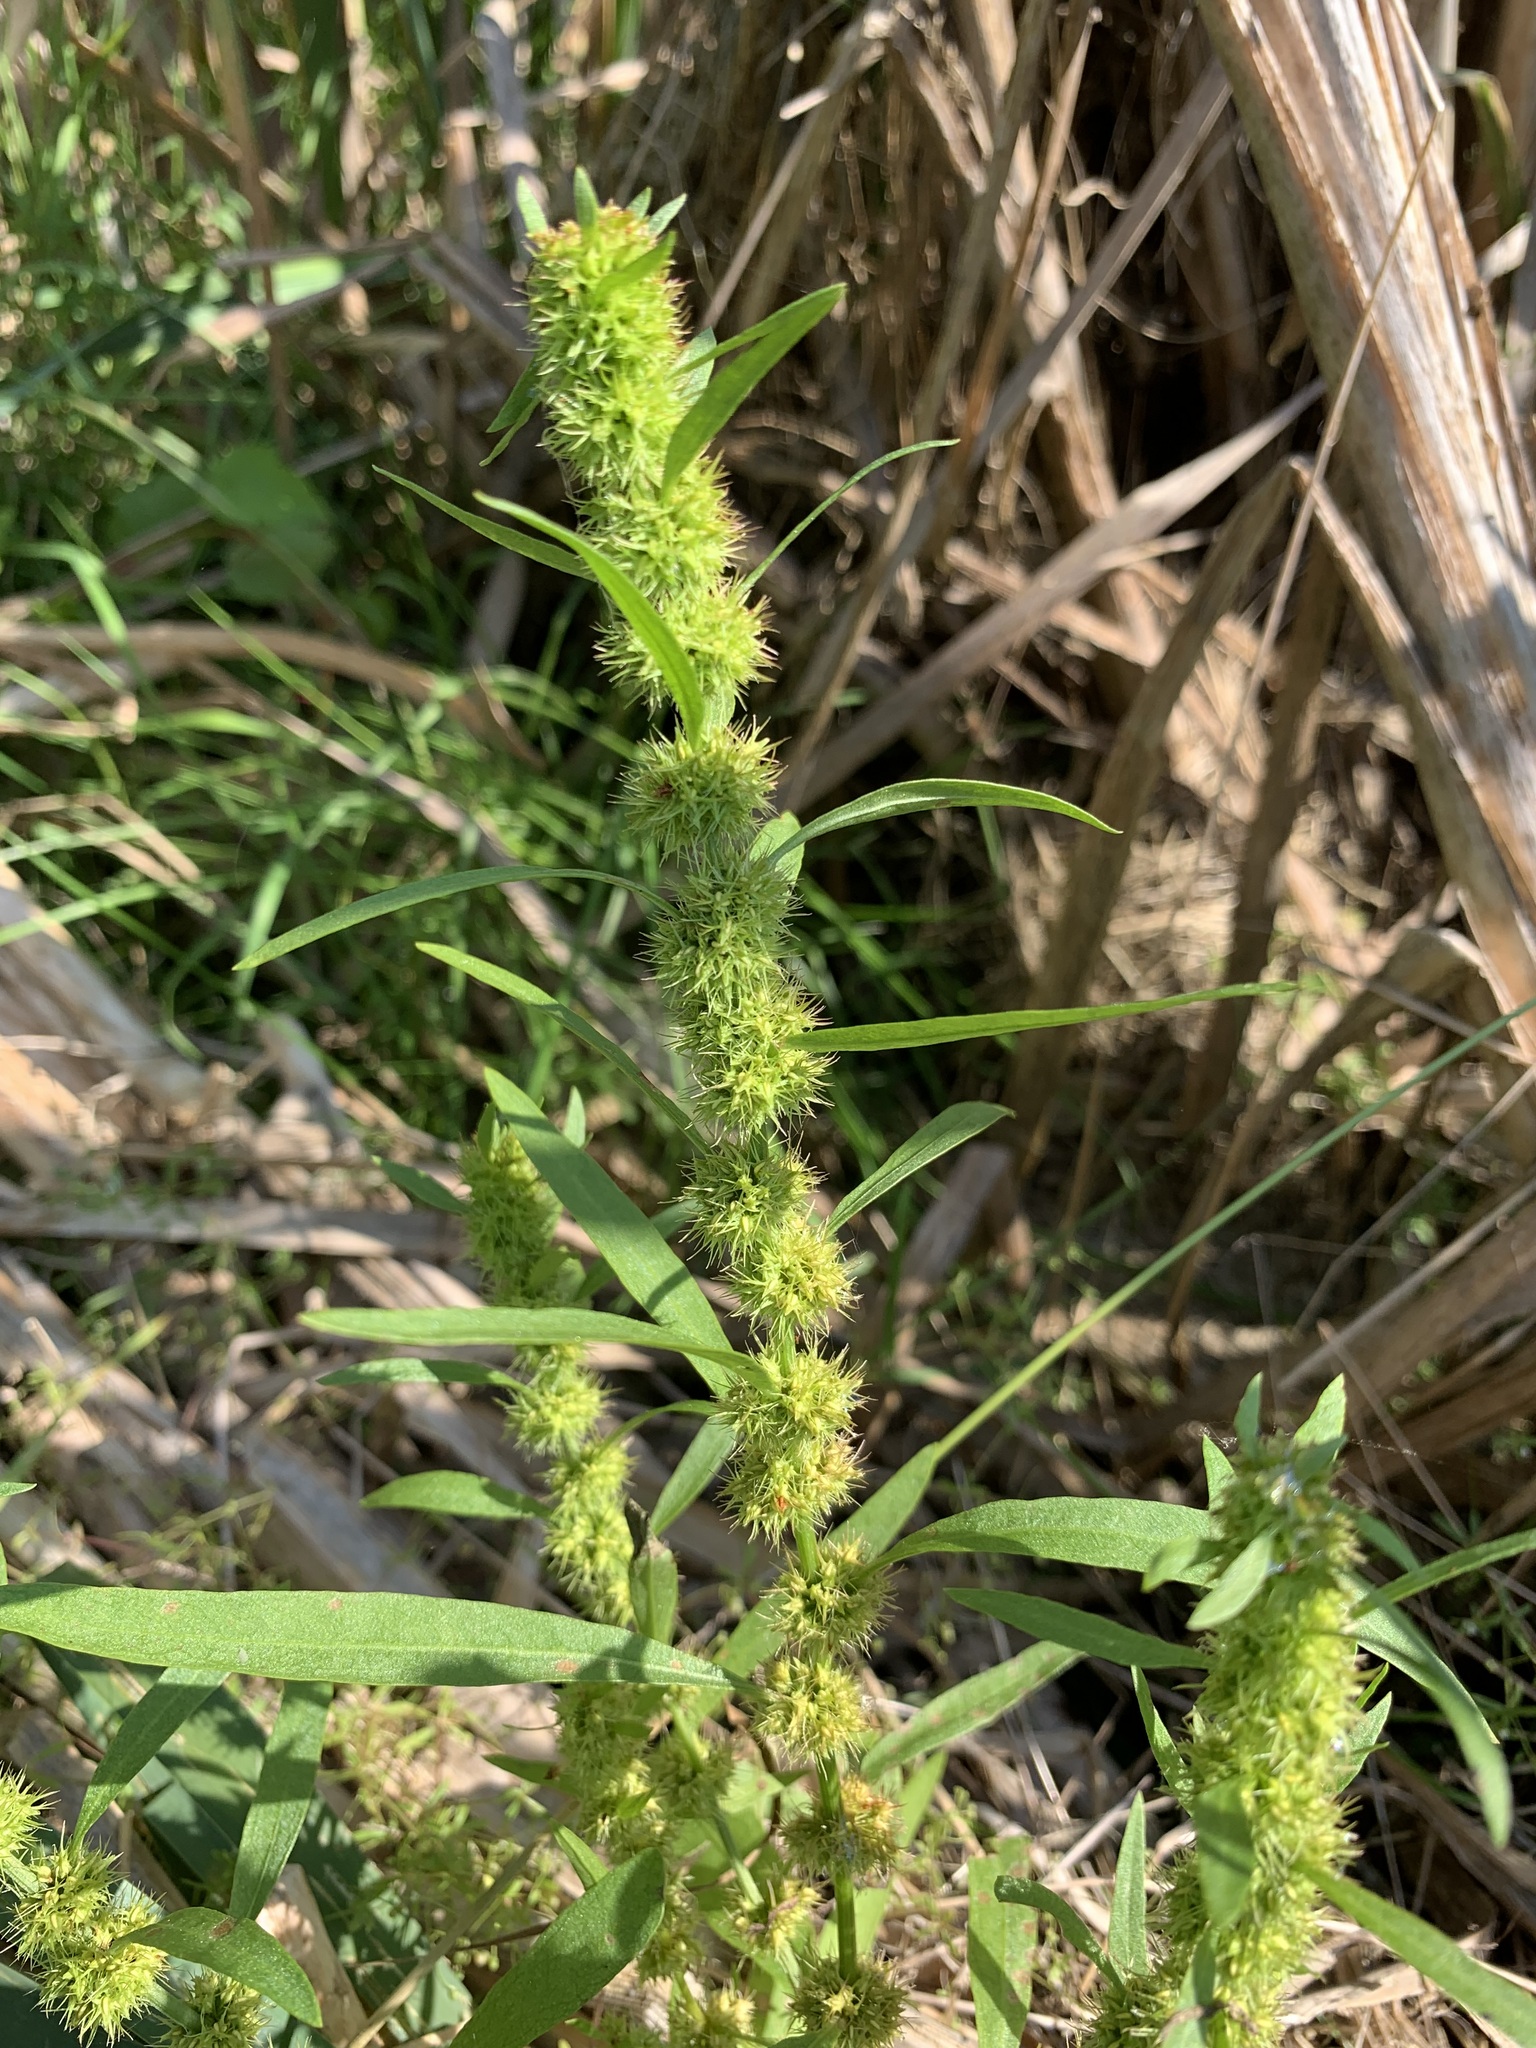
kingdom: Plantae
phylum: Tracheophyta
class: Magnoliopsida
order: Caryophyllales
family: Polygonaceae
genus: Rumex
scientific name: Rumex maritimus
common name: Golden dock
